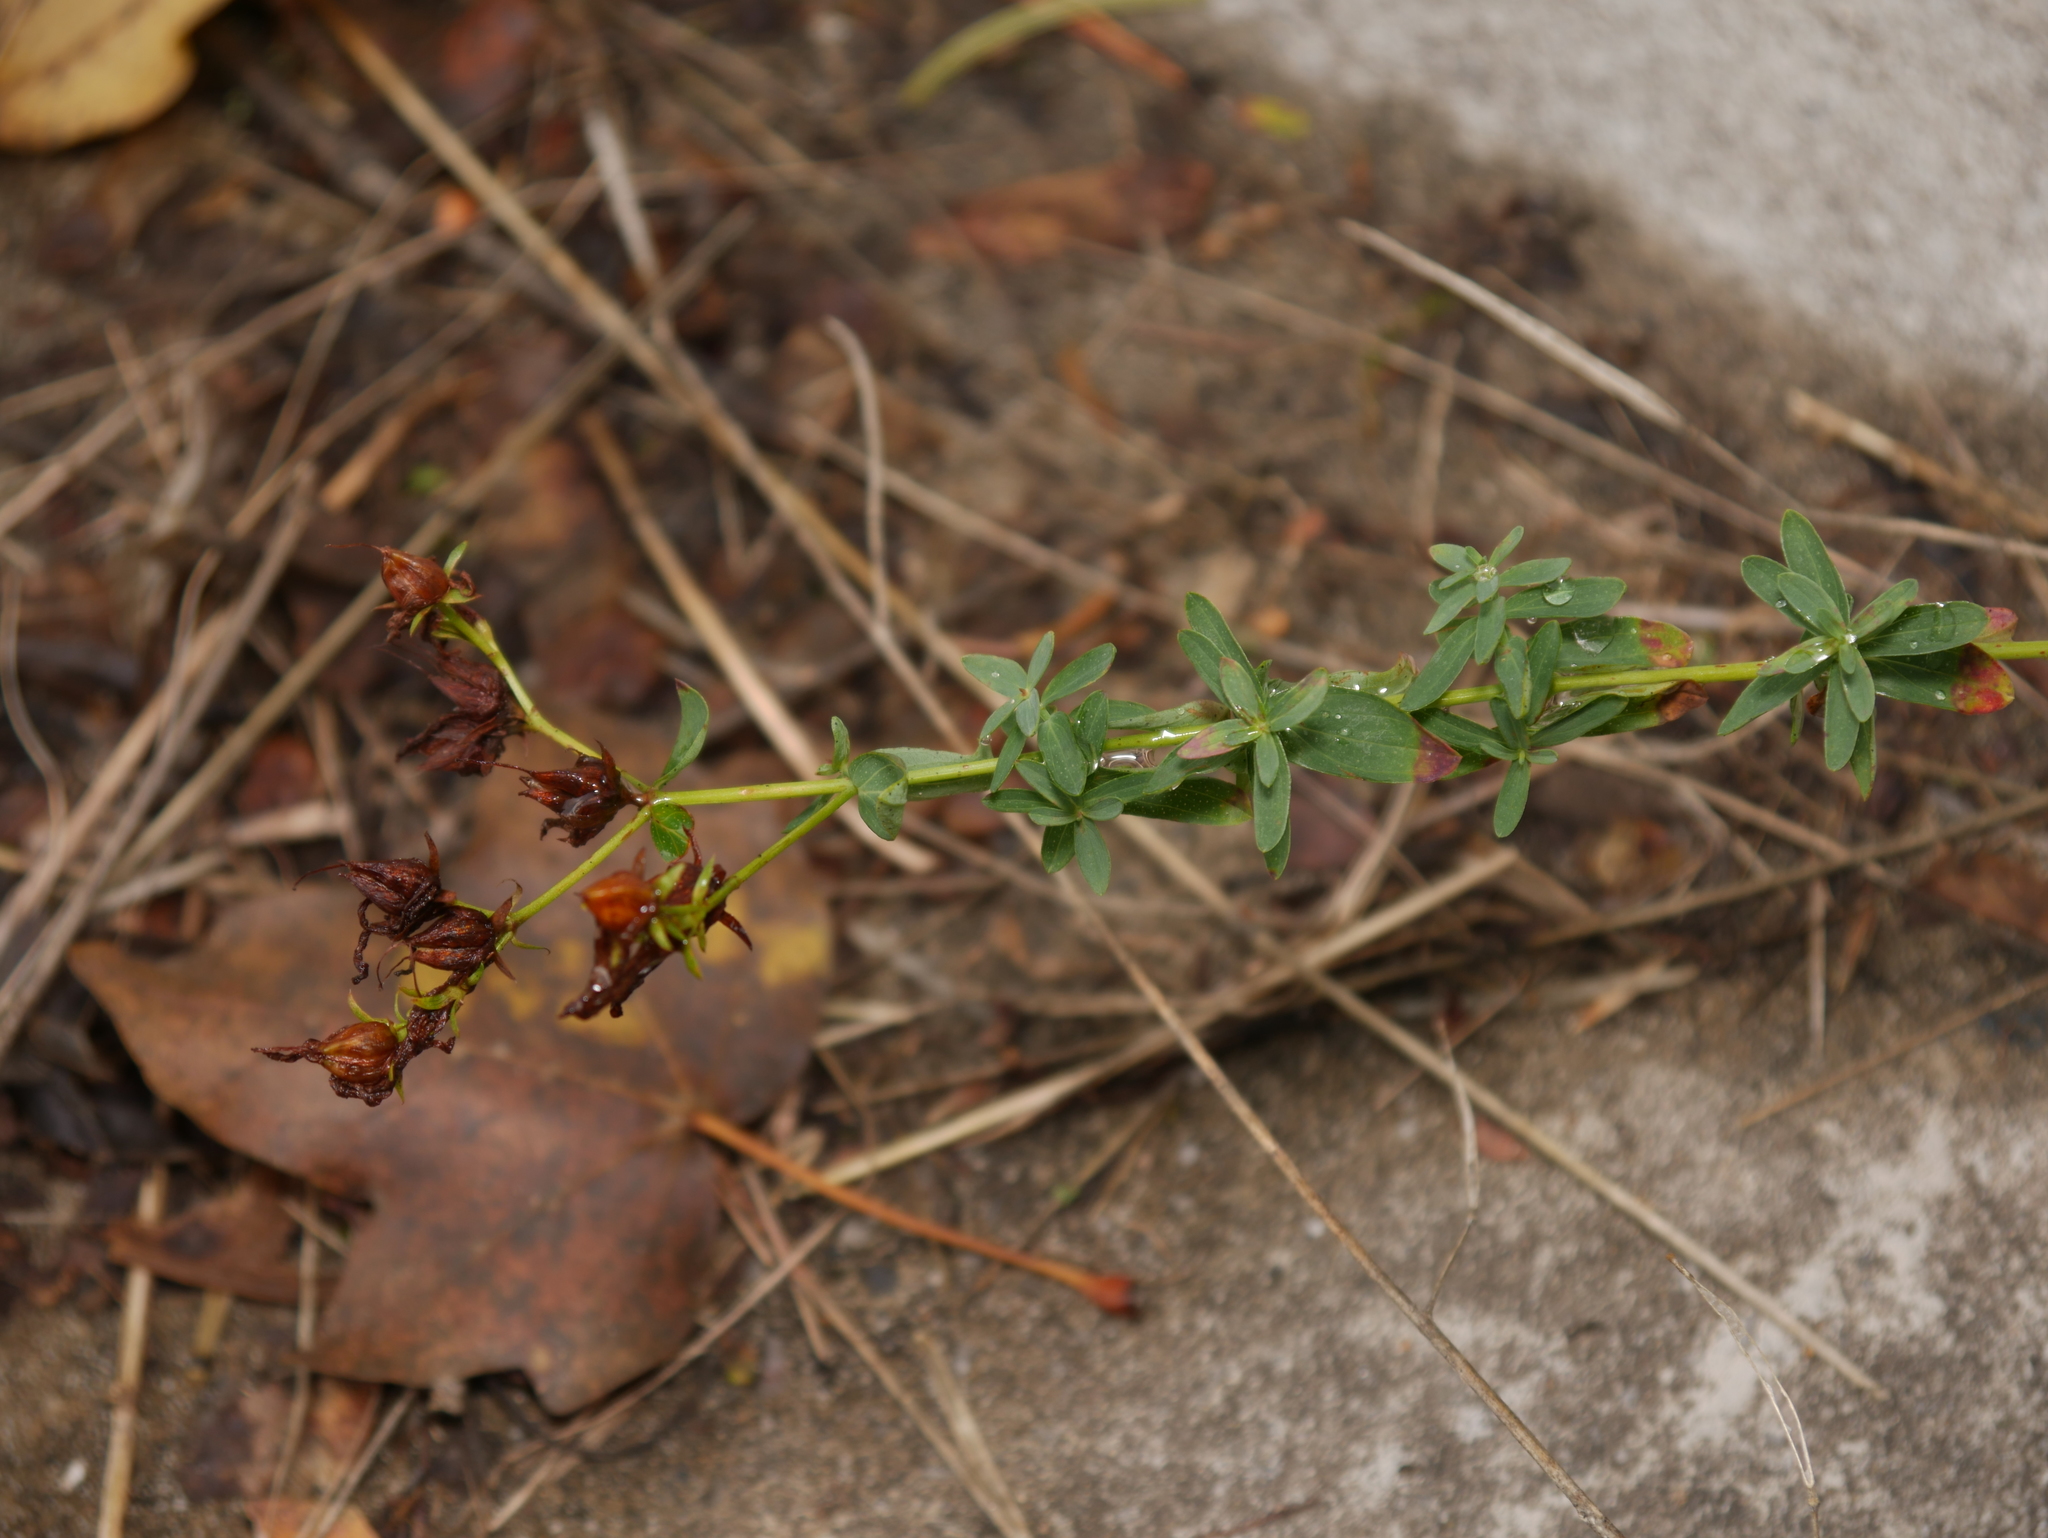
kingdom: Plantae
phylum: Tracheophyta
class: Magnoliopsida
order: Malpighiales
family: Hypericaceae
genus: Hypericum
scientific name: Hypericum perforatum
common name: Common st. johnswort
